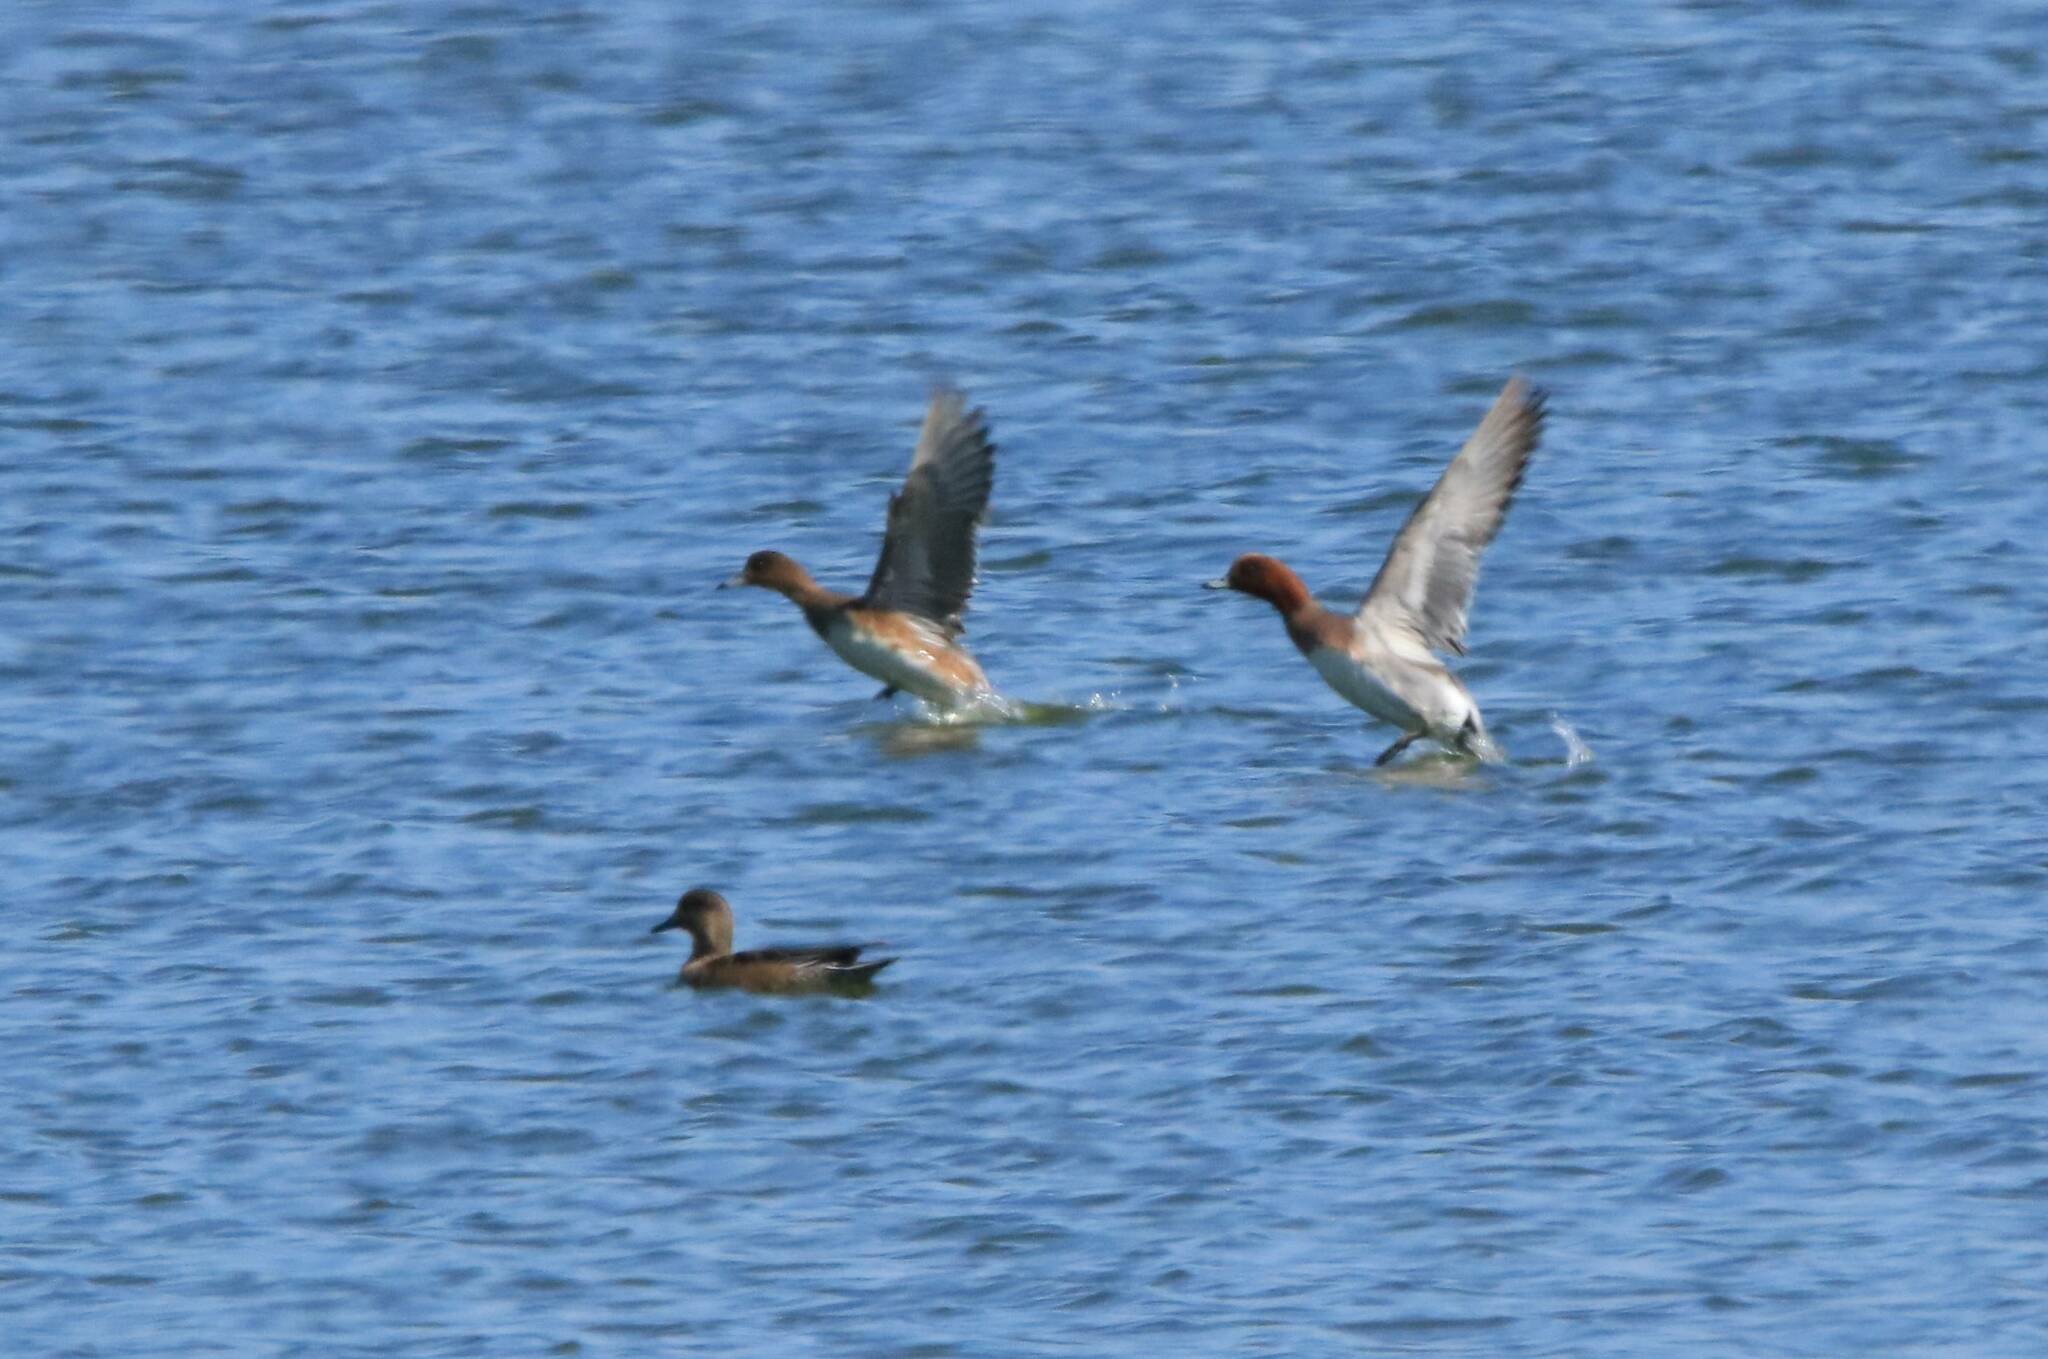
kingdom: Animalia
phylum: Chordata
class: Aves
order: Anseriformes
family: Anatidae
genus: Mareca
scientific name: Mareca penelope
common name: Eurasian wigeon
